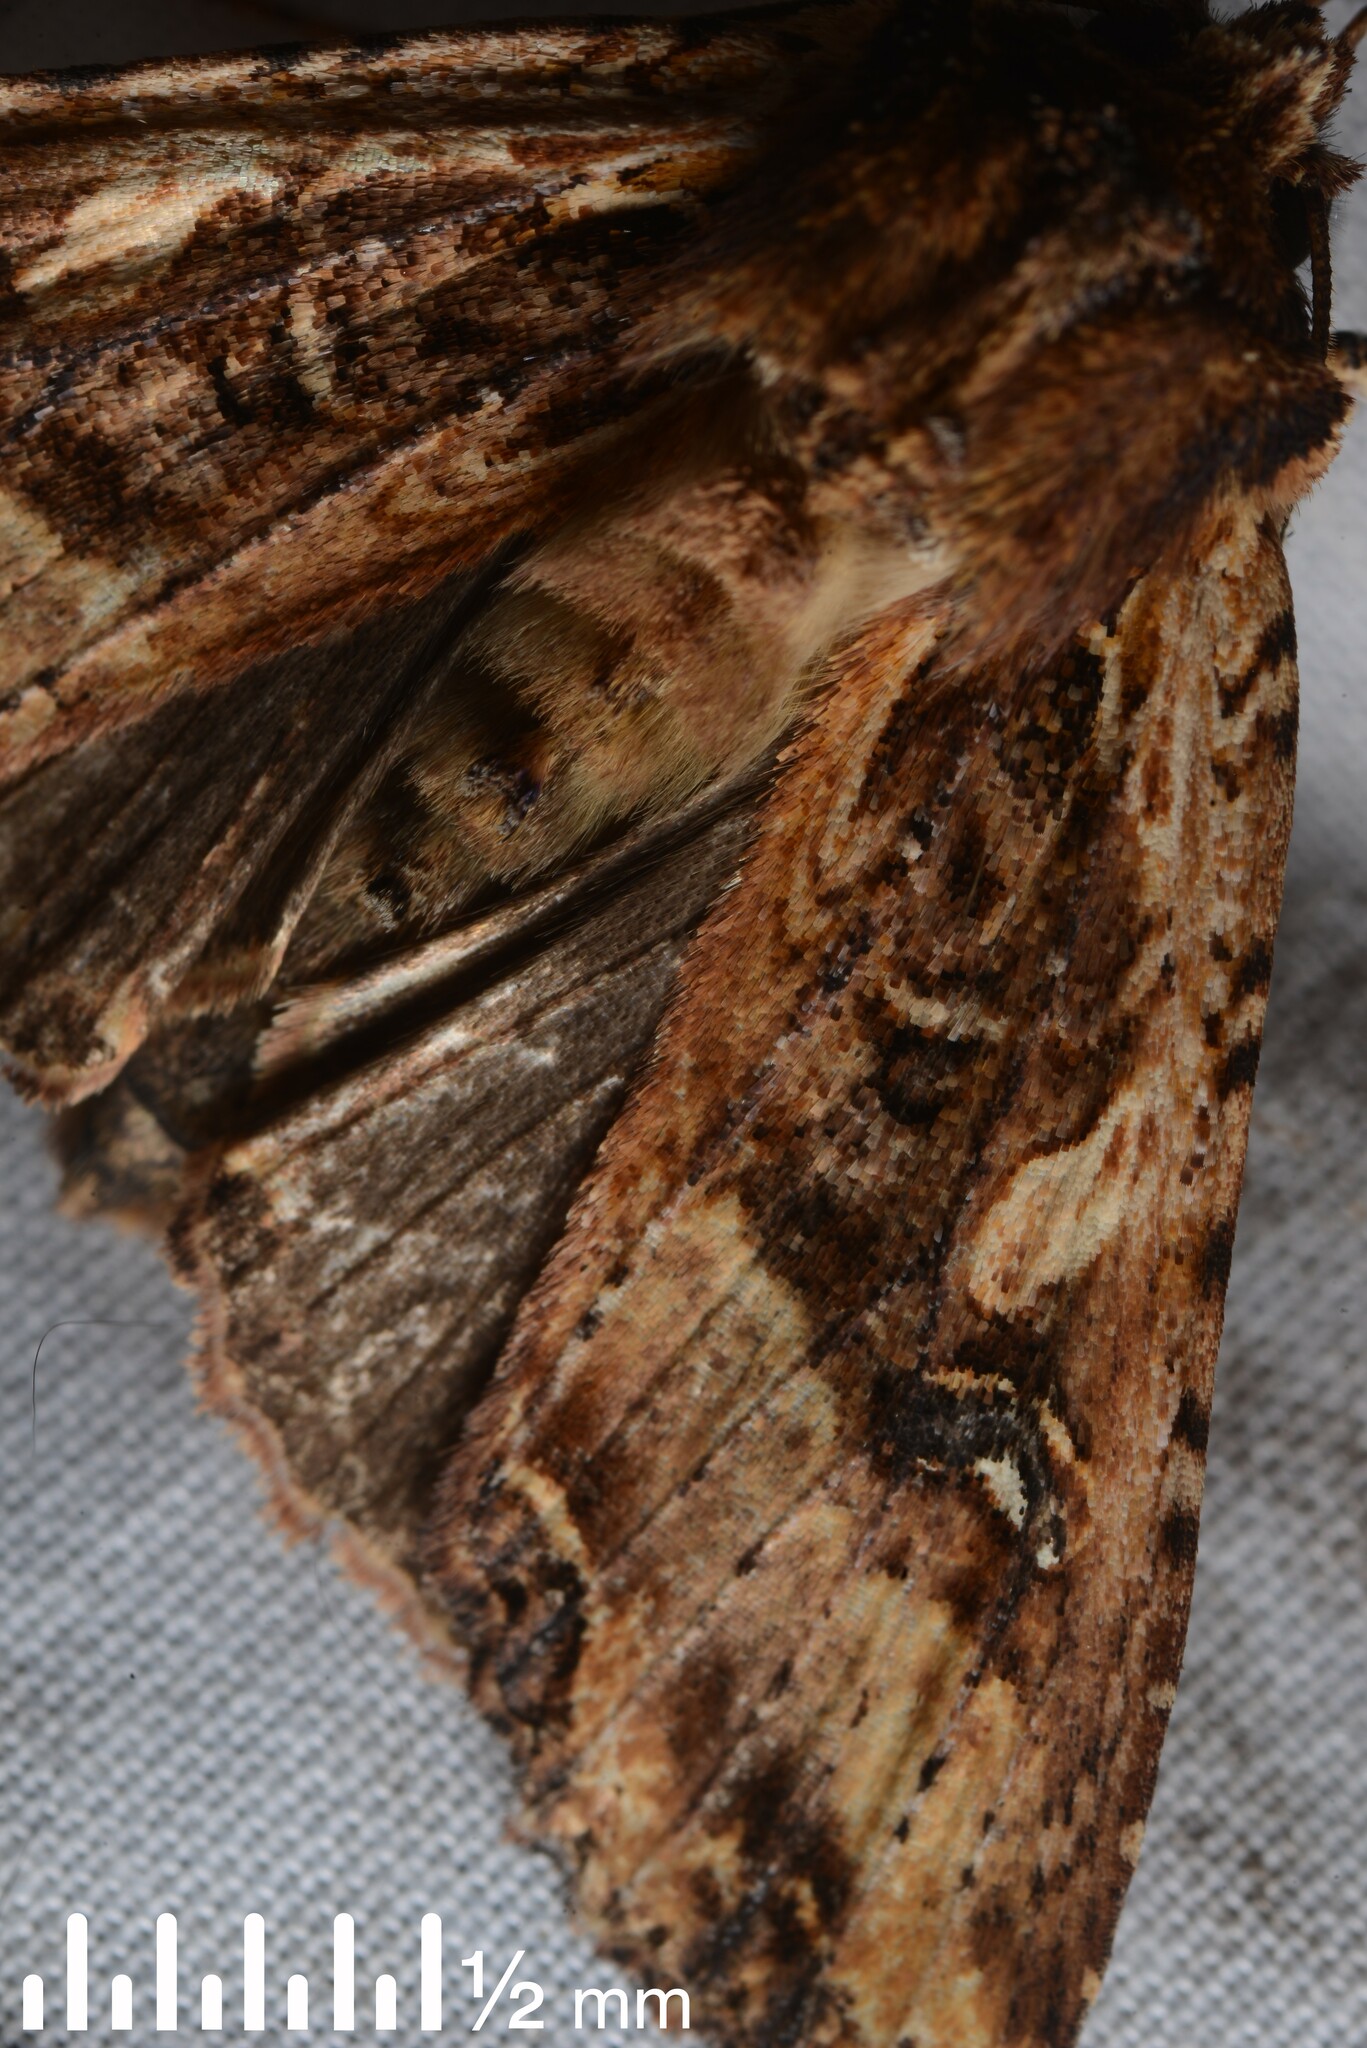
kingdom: Animalia
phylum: Arthropoda
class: Insecta
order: Lepidoptera
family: Noctuidae
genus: Meterana
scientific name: Meterana stipata
